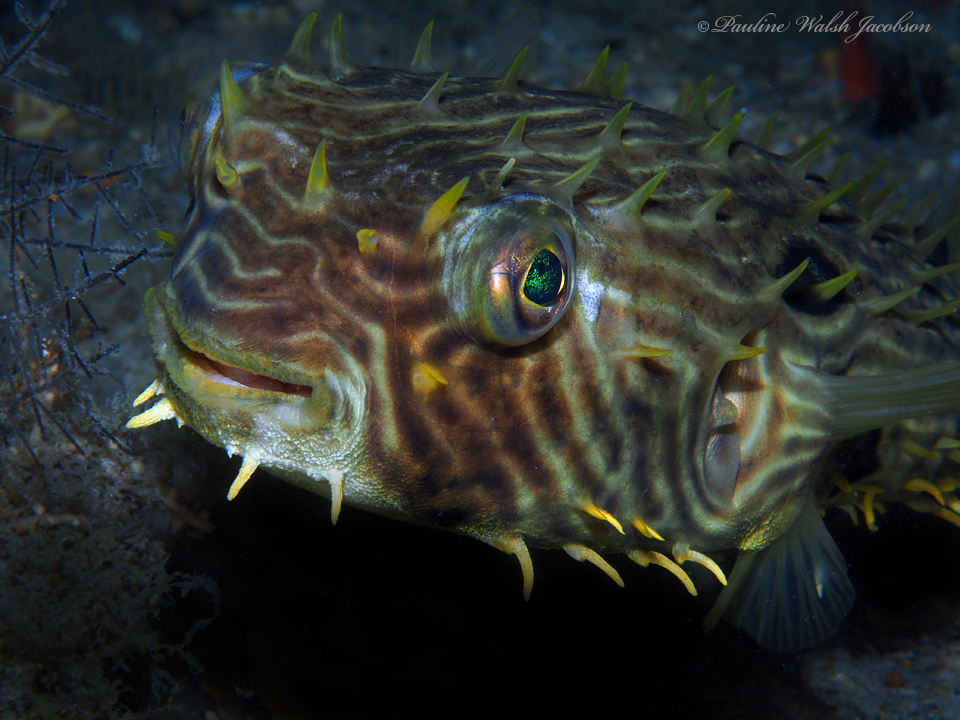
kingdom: Animalia
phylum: Chordata
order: Tetraodontiformes
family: Diodontidae
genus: Chilomycterus
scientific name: Chilomycterus schoepfii
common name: Striped burrfish
